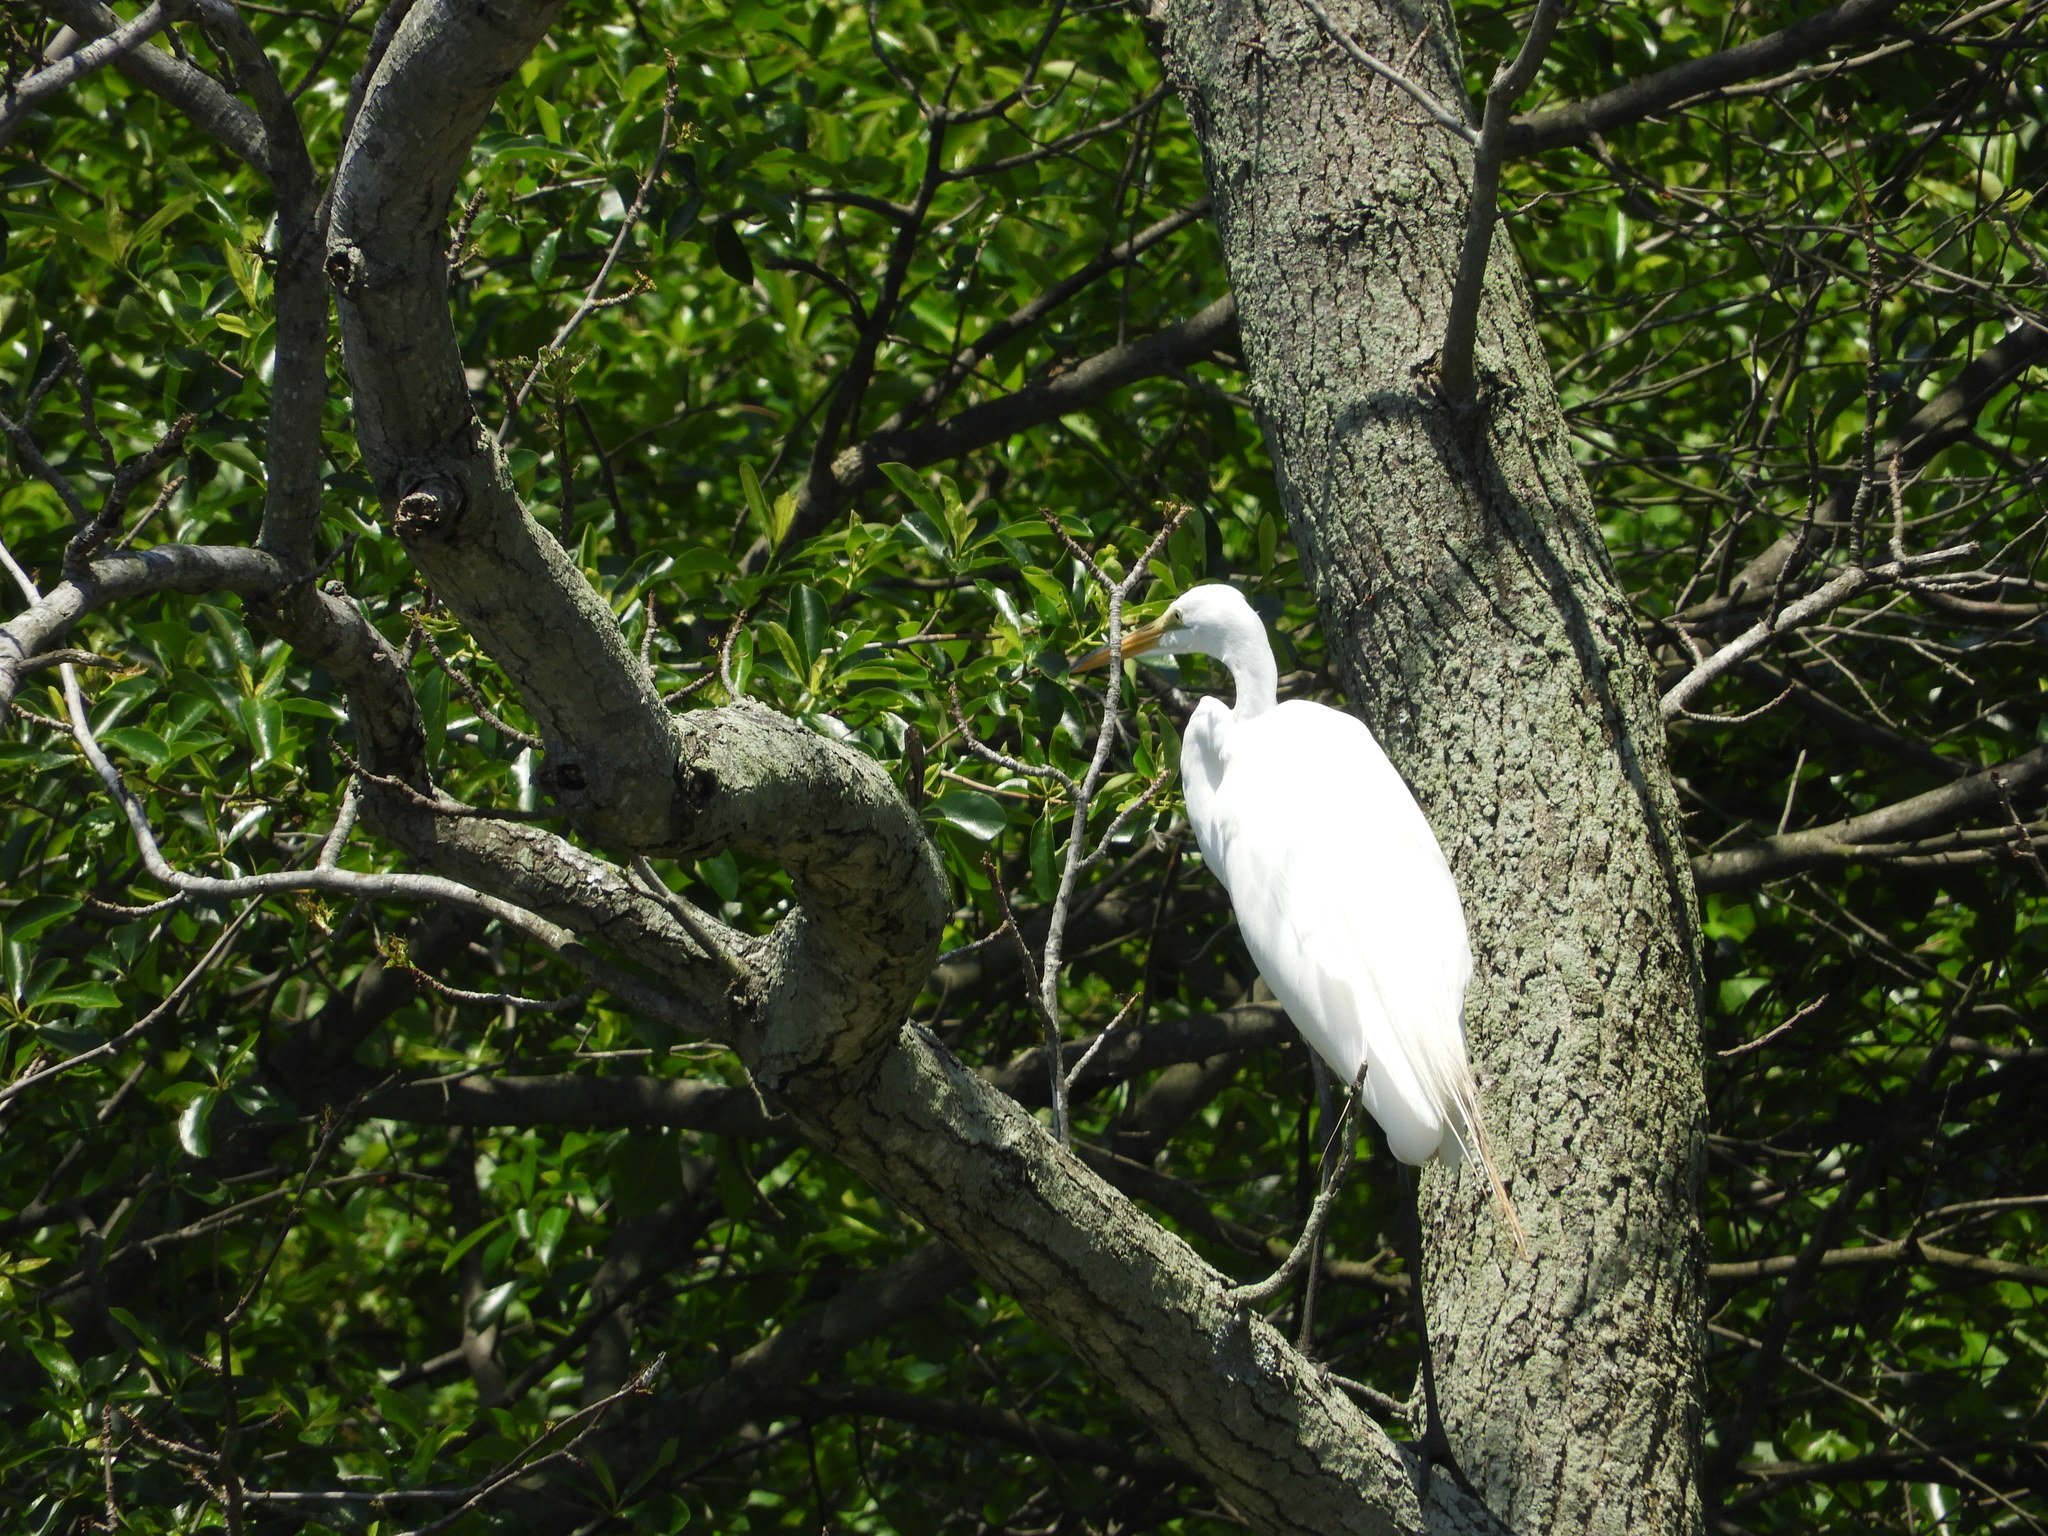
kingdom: Animalia
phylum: Chordata
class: Aves
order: Pelecaniformes
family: Ardeidae
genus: Ardea
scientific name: Ardea alba
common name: Great egret
